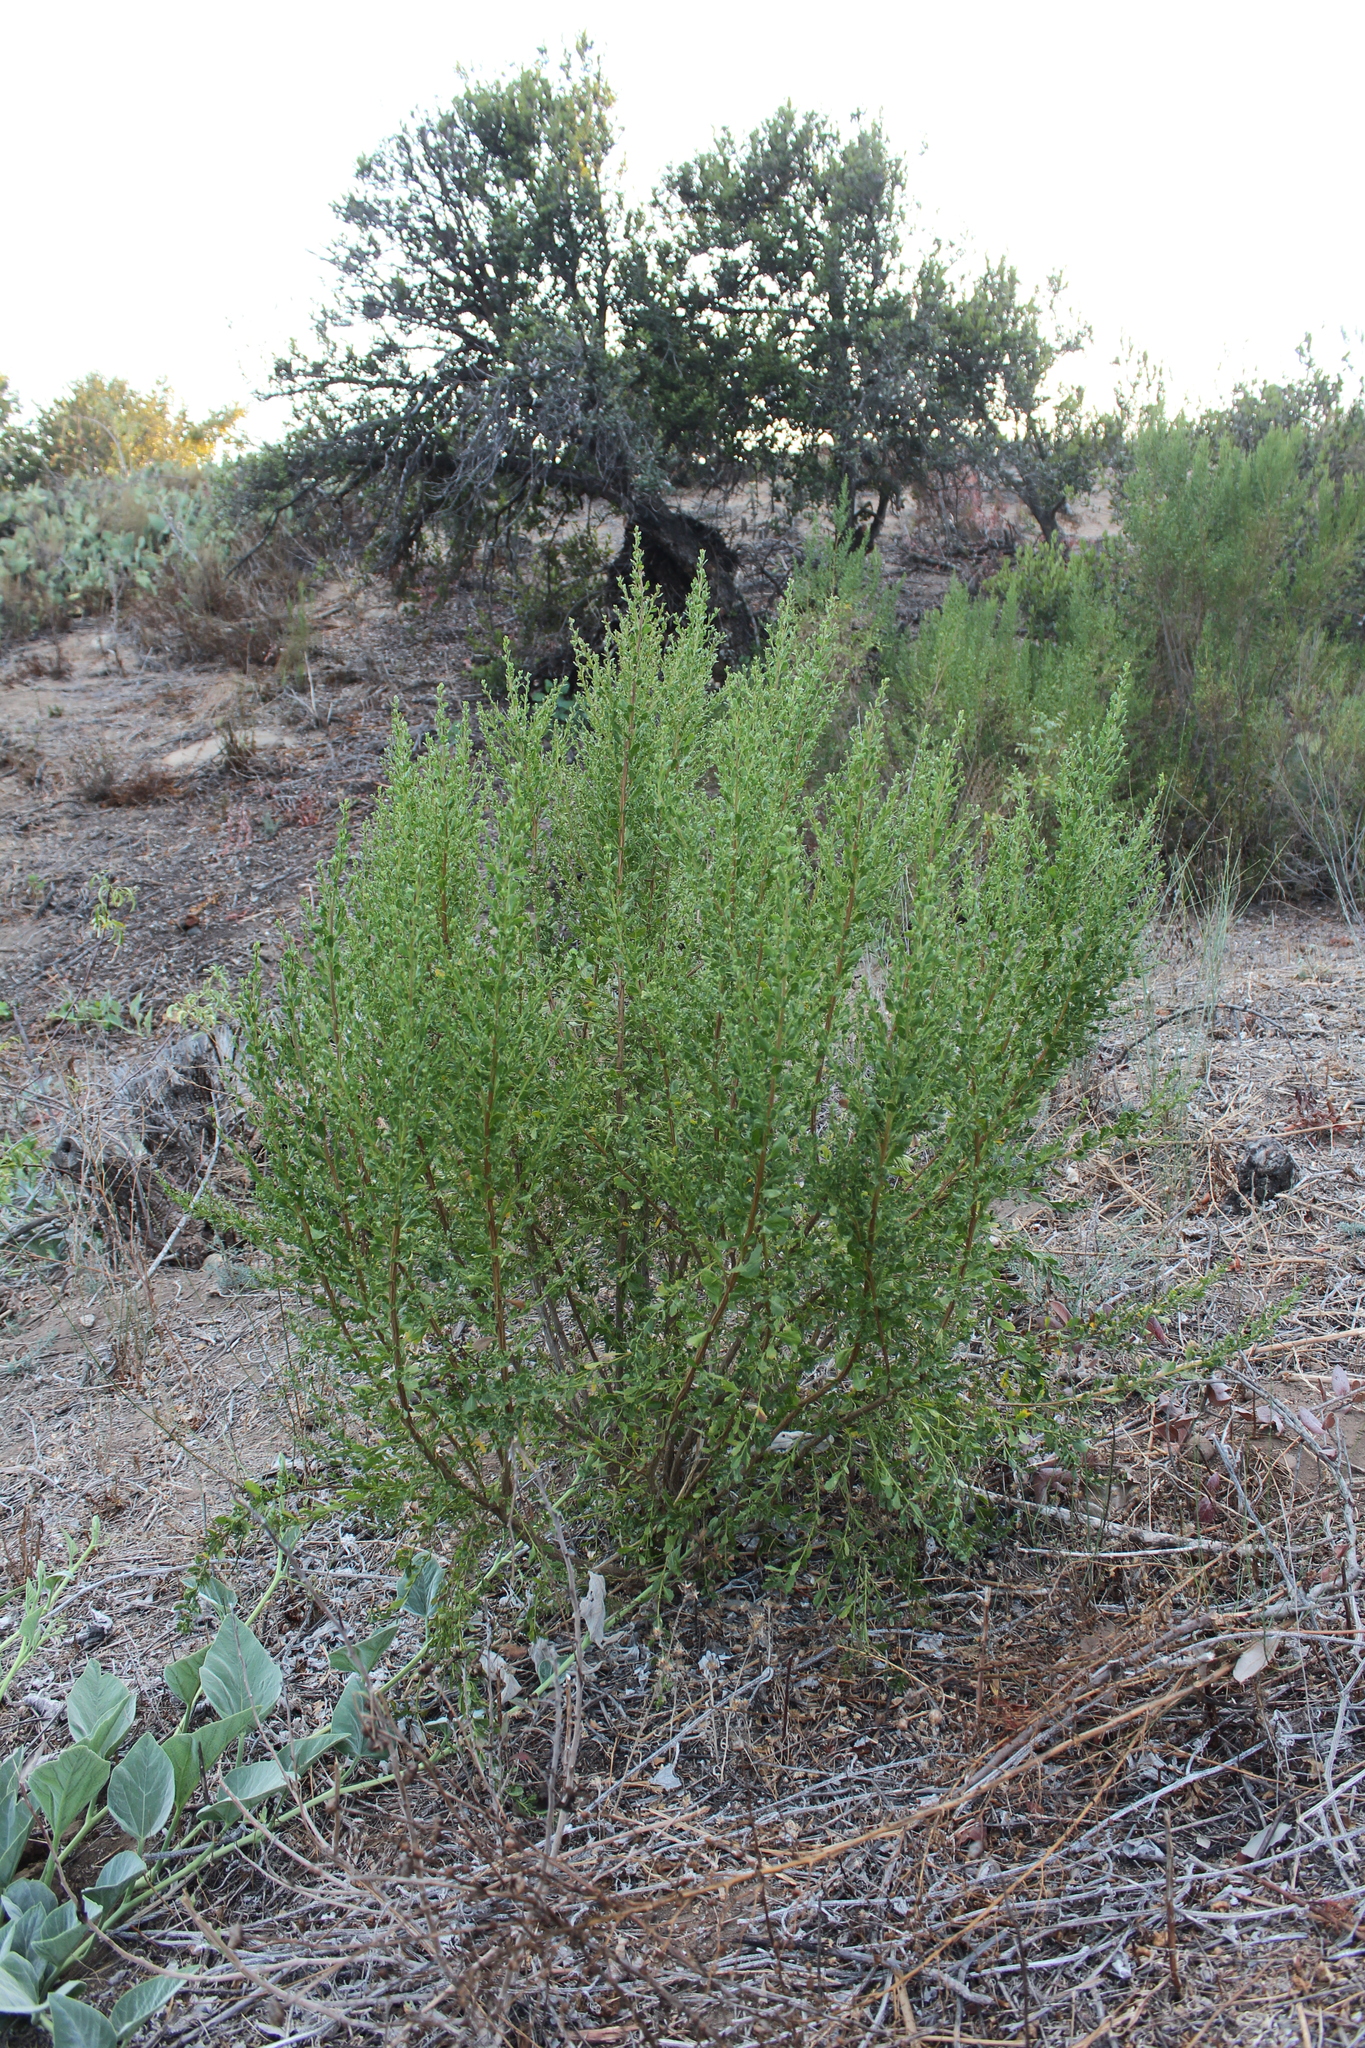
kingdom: Plantae
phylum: Tracheophyta
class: Magnoliopsida
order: Asterales
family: Asteraceae
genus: Baccharis
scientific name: Baccharis pilularis
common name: Coyotebrush
